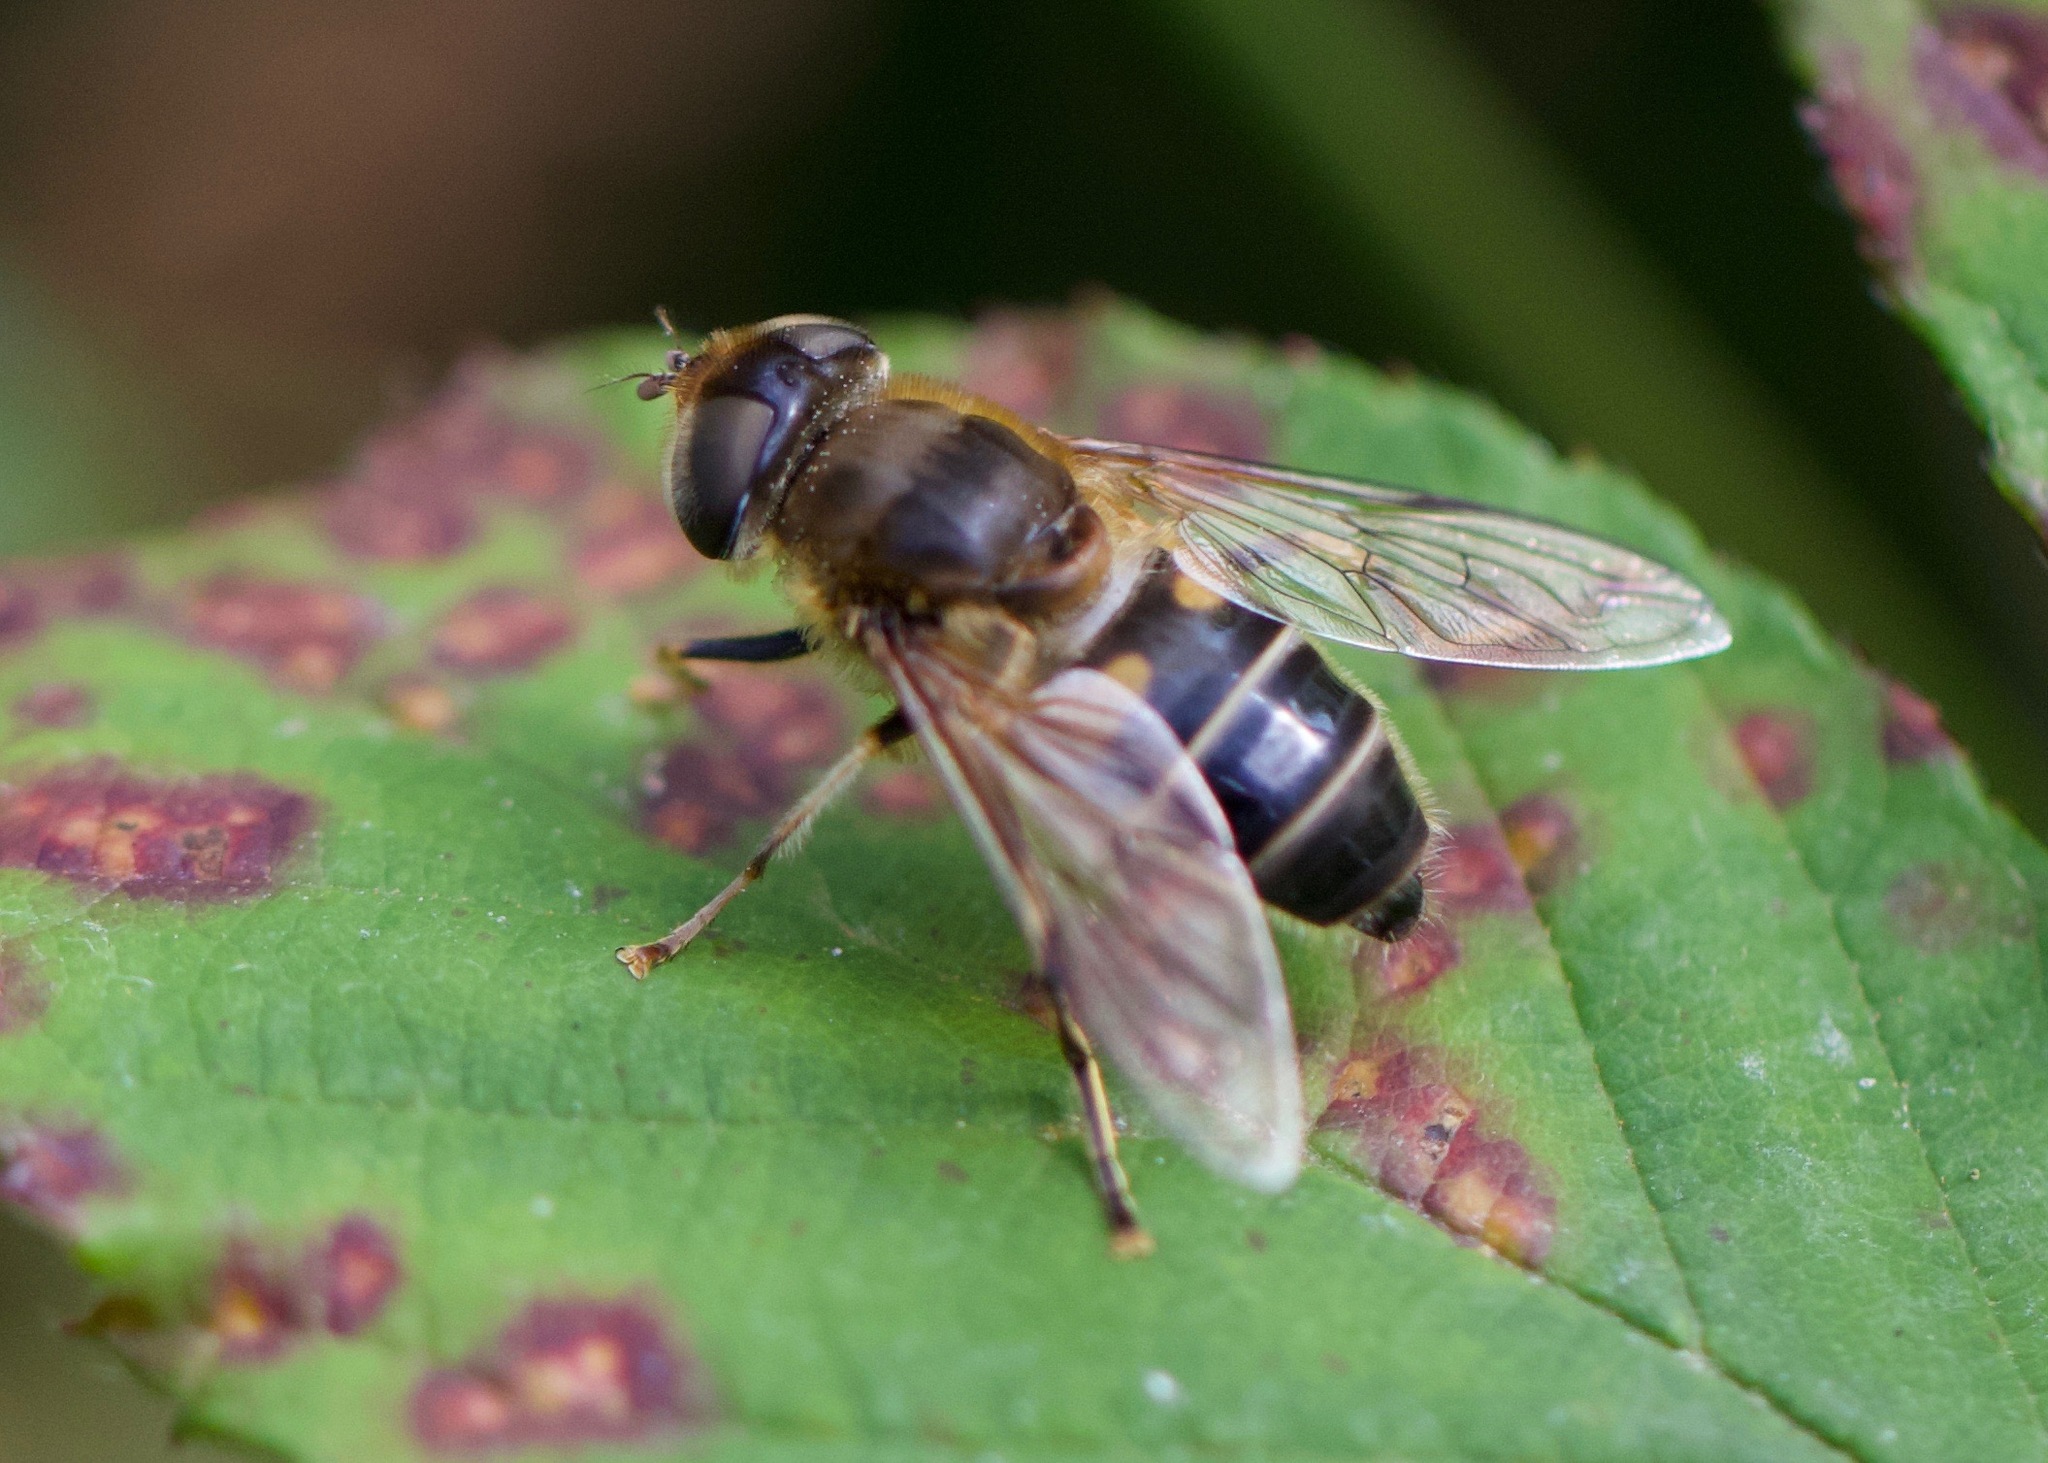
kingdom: Animalia
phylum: Arthropoda
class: Insecta
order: Diptera
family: Syrphidae
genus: Eristalis
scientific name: Eristalis pertinax
